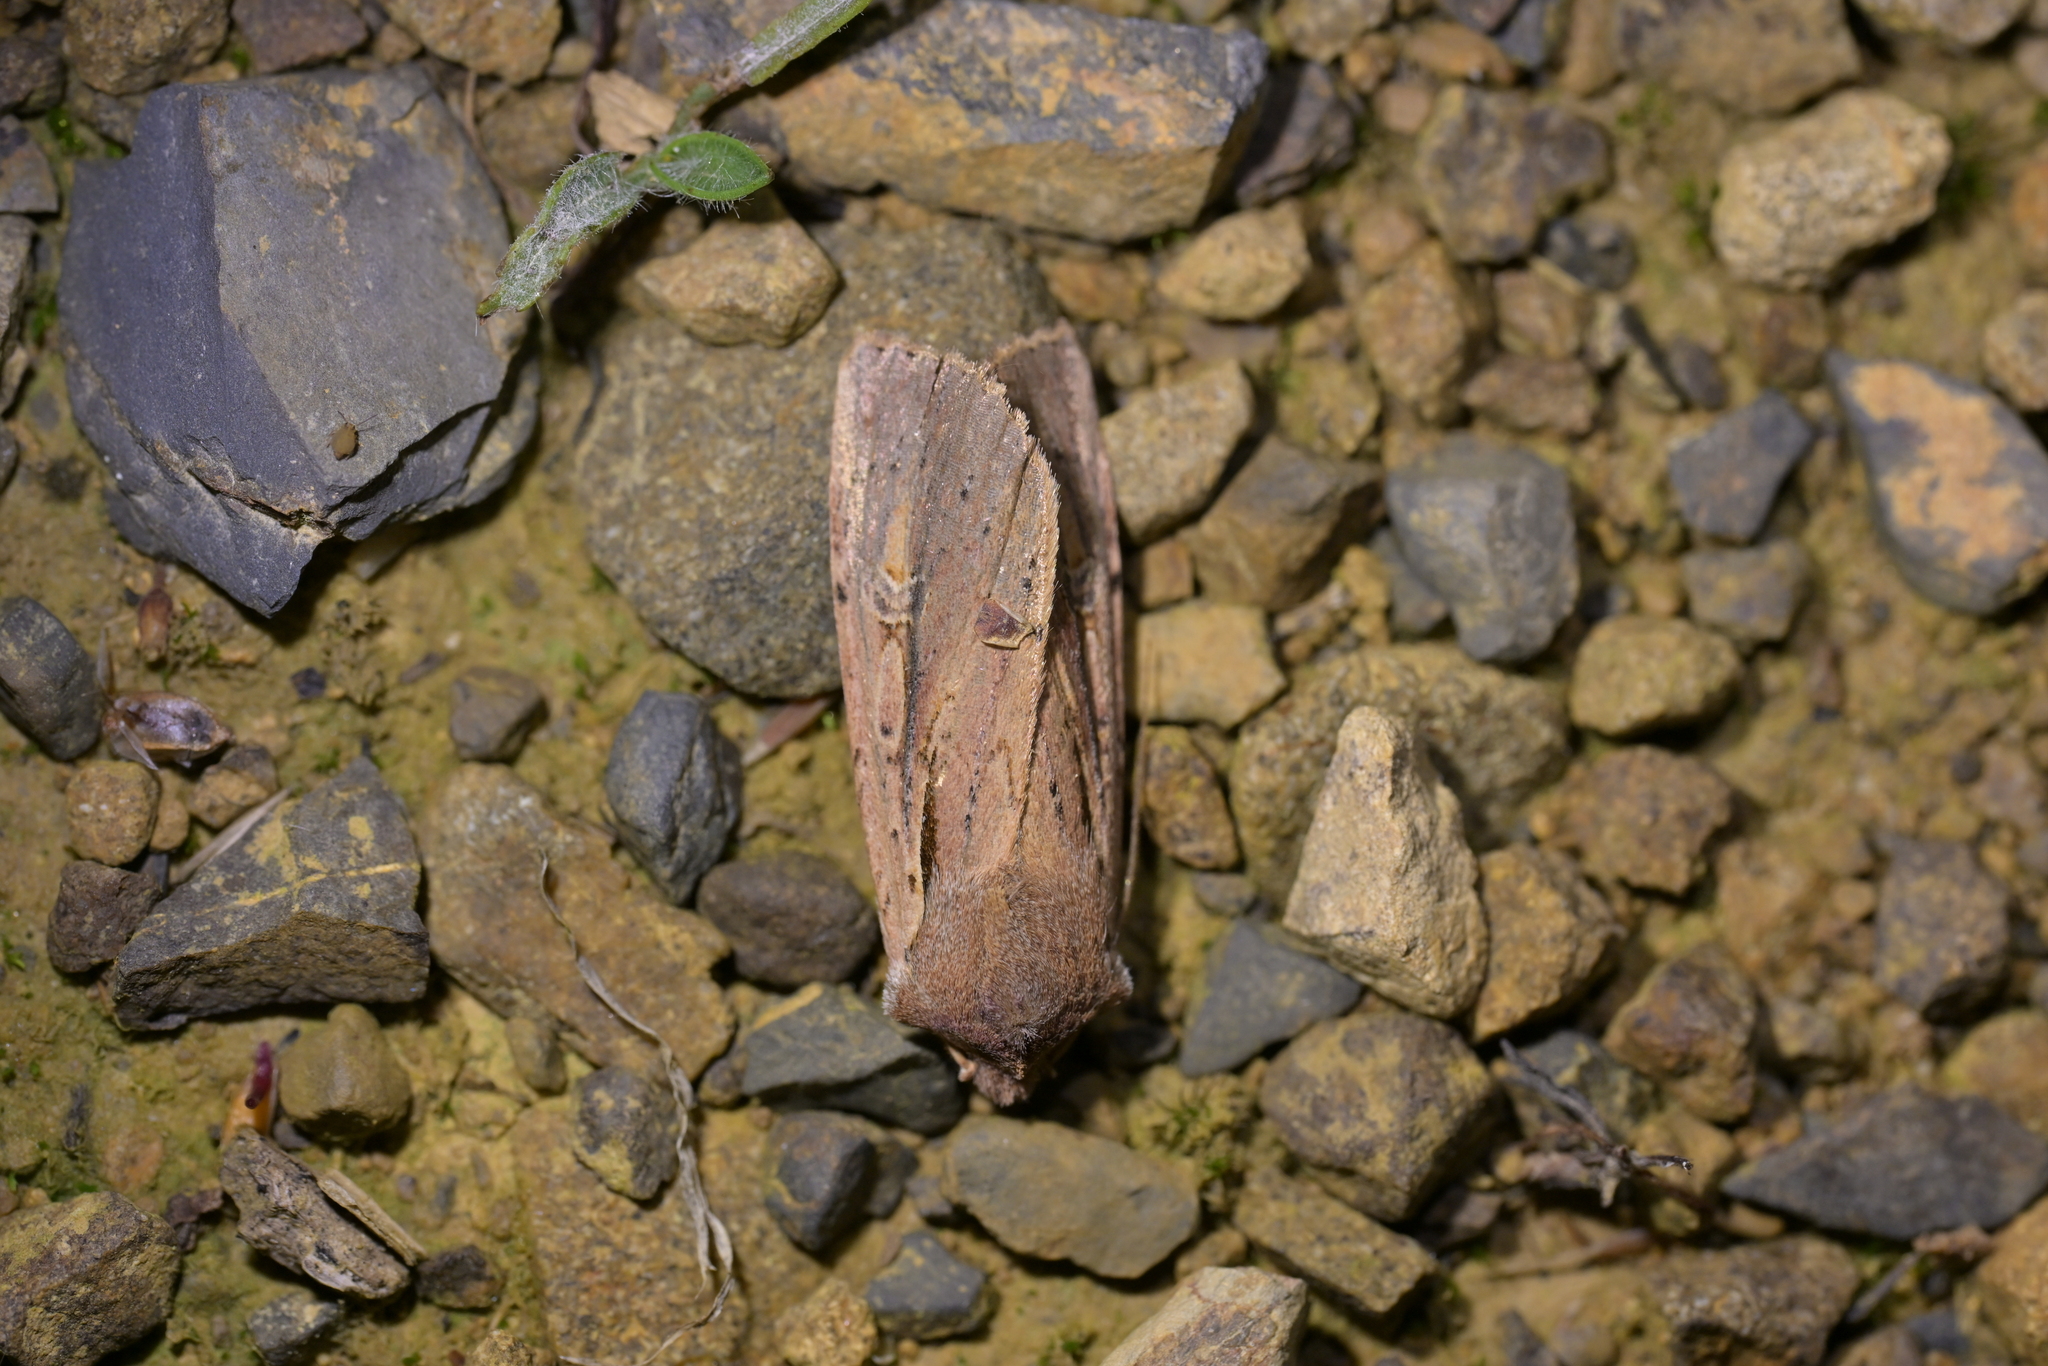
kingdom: Animalia
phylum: Arthropoda
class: Insecta
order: Lepidoptera
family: Noctuidae
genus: Ichneutica
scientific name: Ichneutica atristriga
